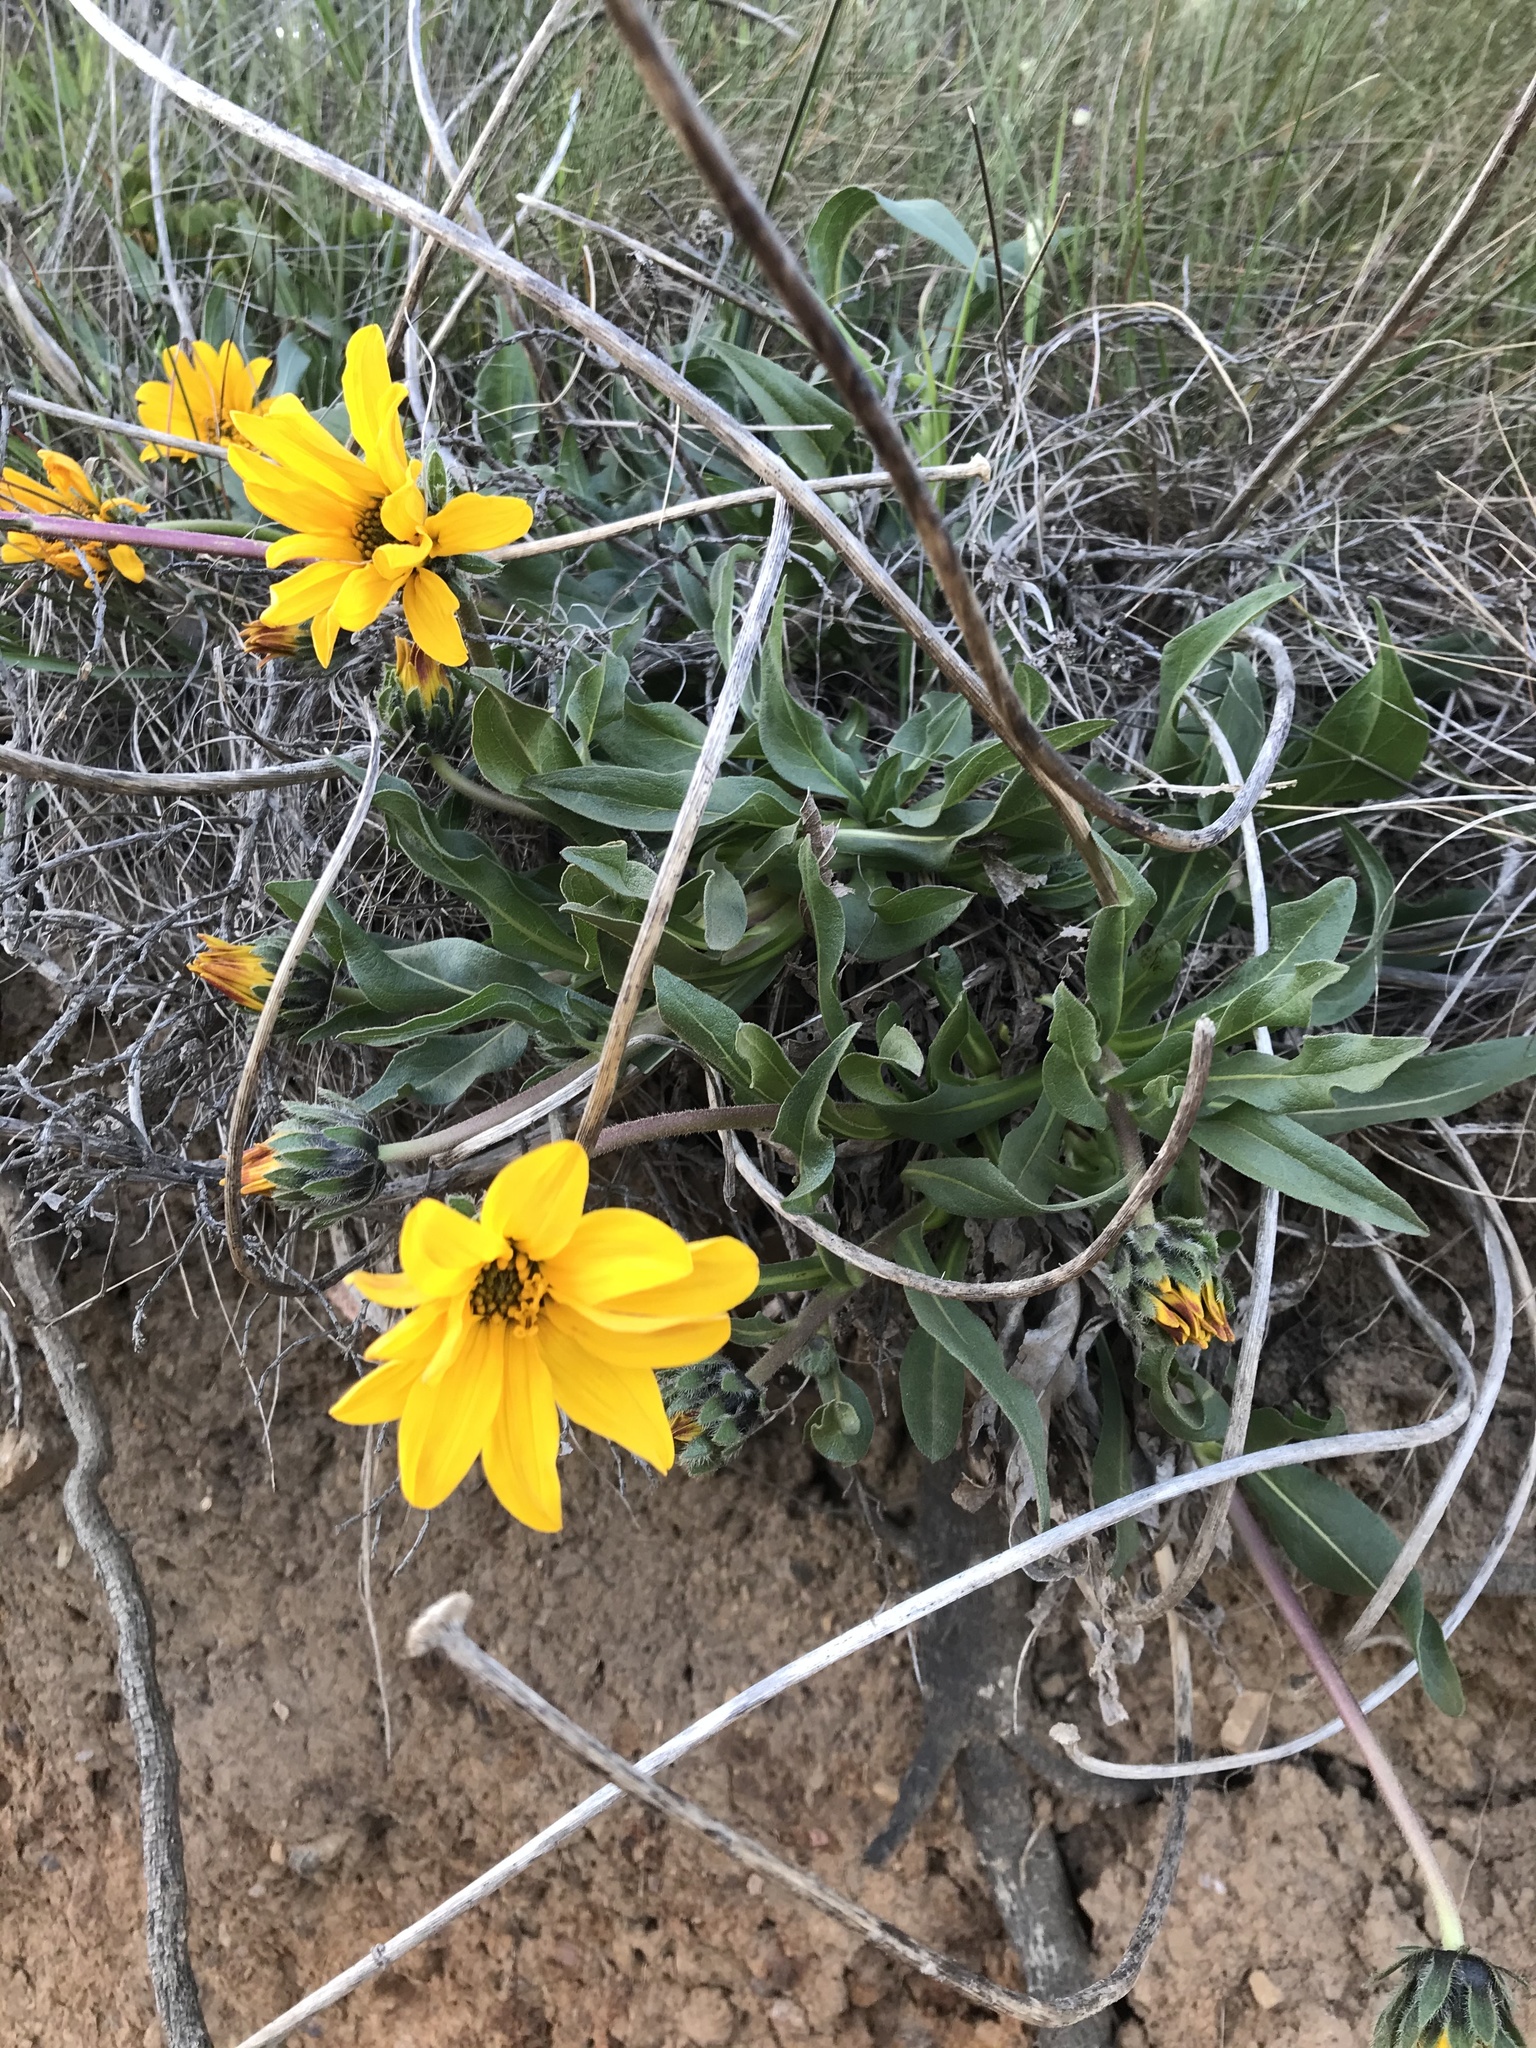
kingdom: Plantae
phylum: Tracheophyta
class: Magnoliopsida
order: Asterales
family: Asteraceae
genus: Wyethia
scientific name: Wyethia angustifolia
